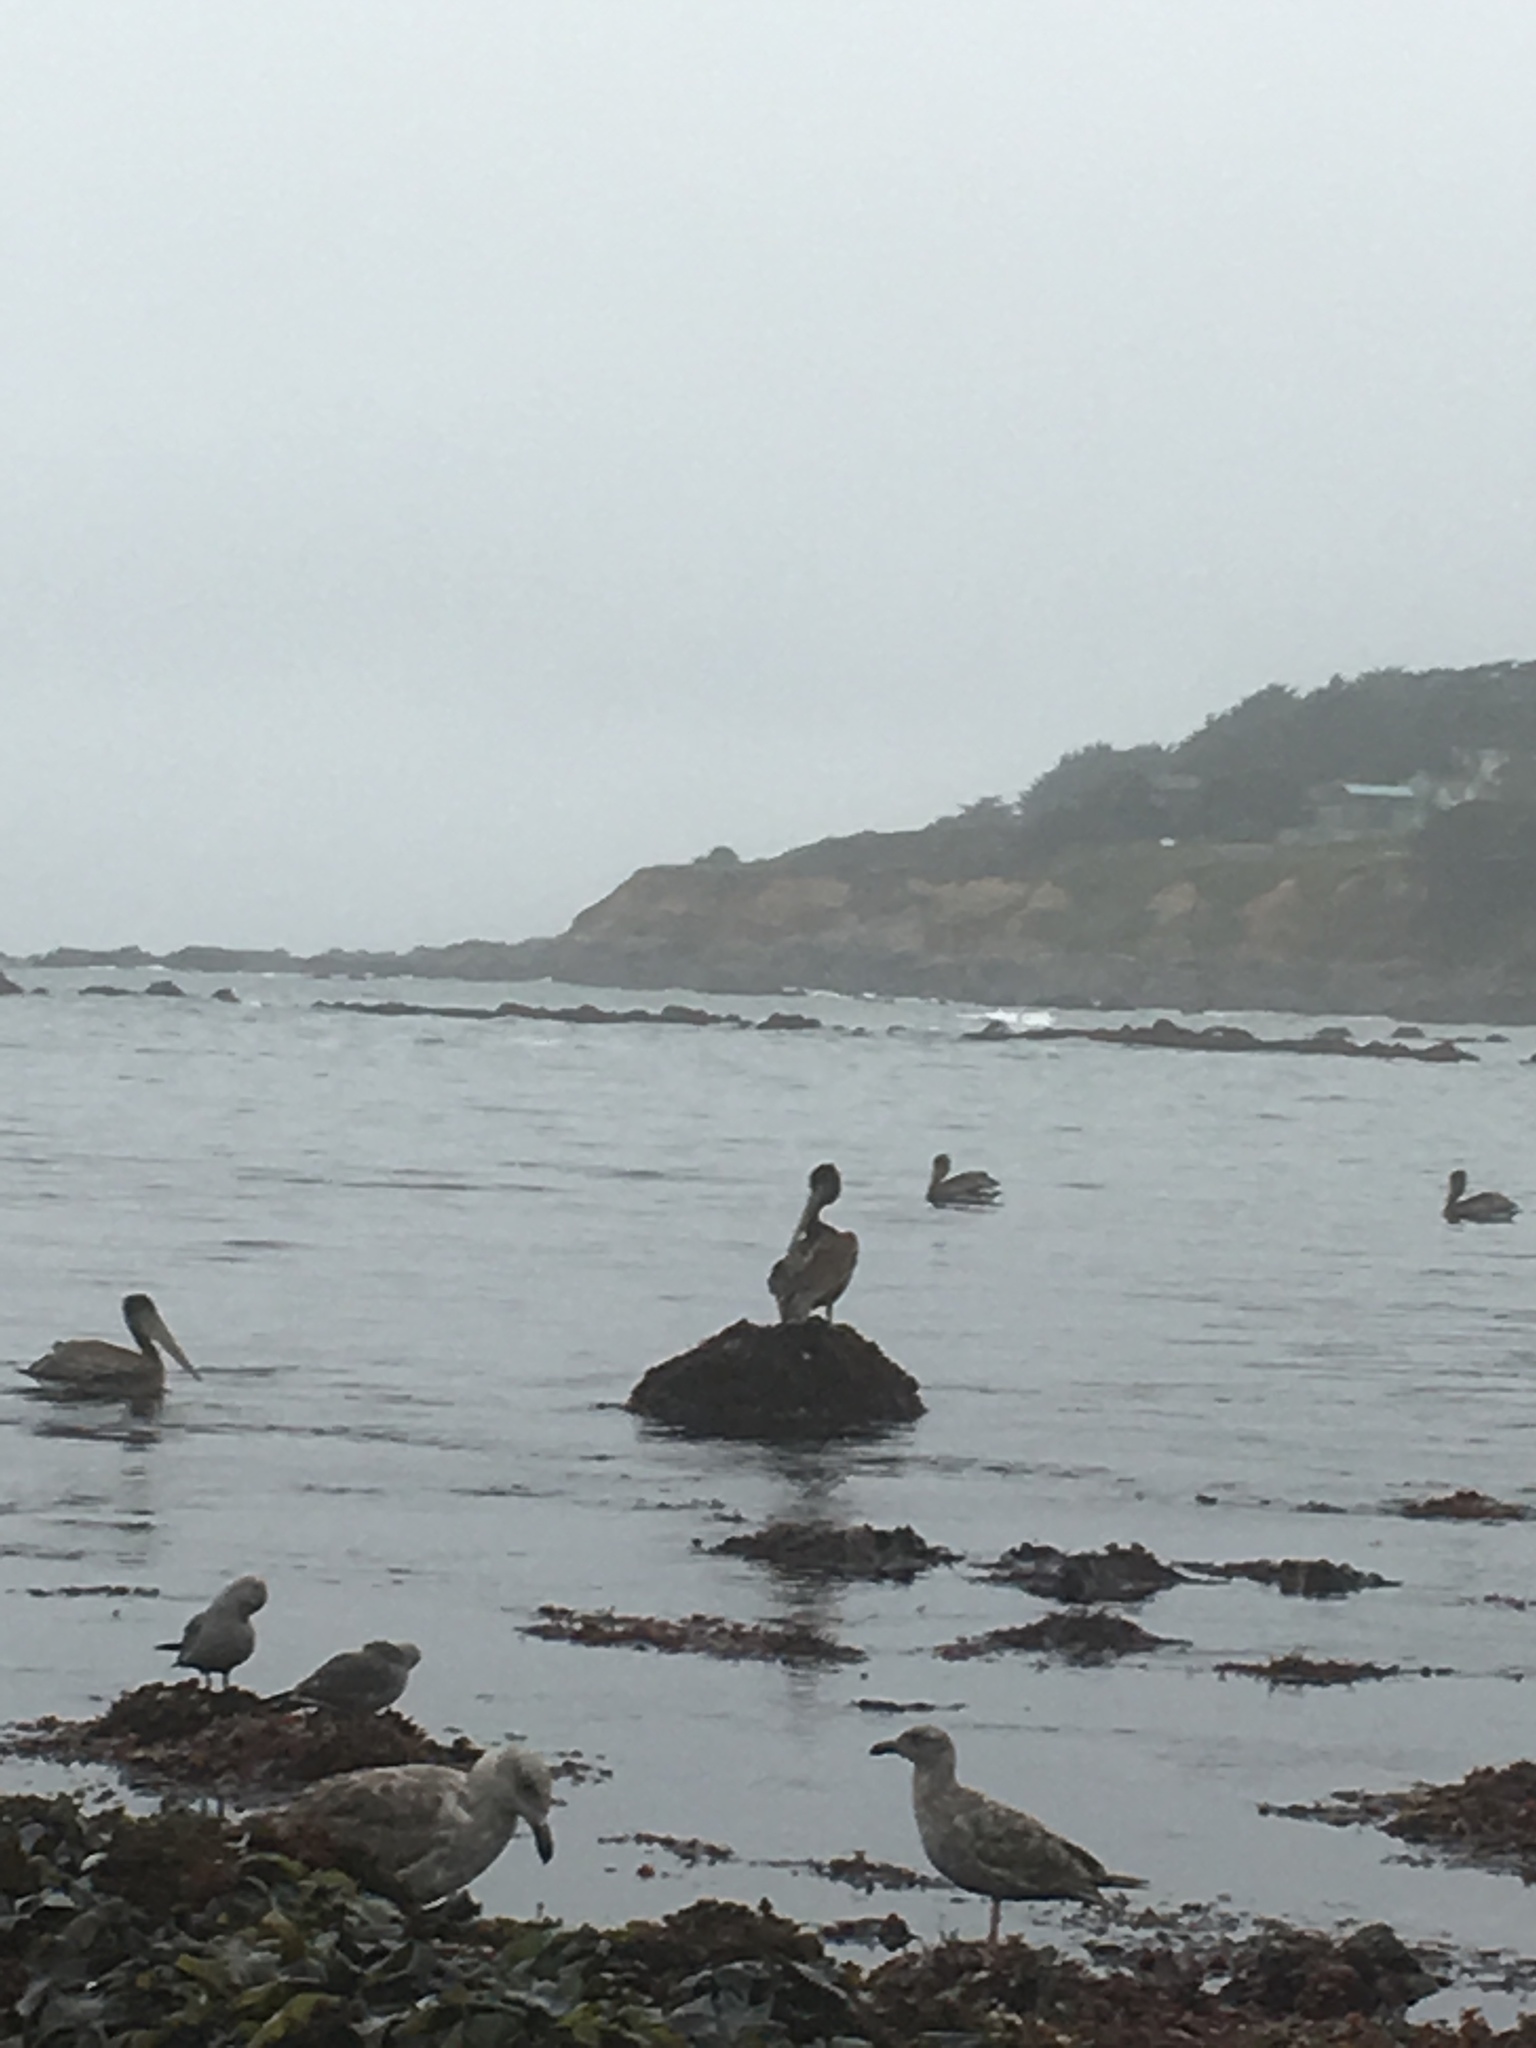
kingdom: Animalia
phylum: Chordata
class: Aves
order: Pelecaniformes
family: Pelecanidae
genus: Pelecanus
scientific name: Pelecanus occidentalis
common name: Brown pelican
